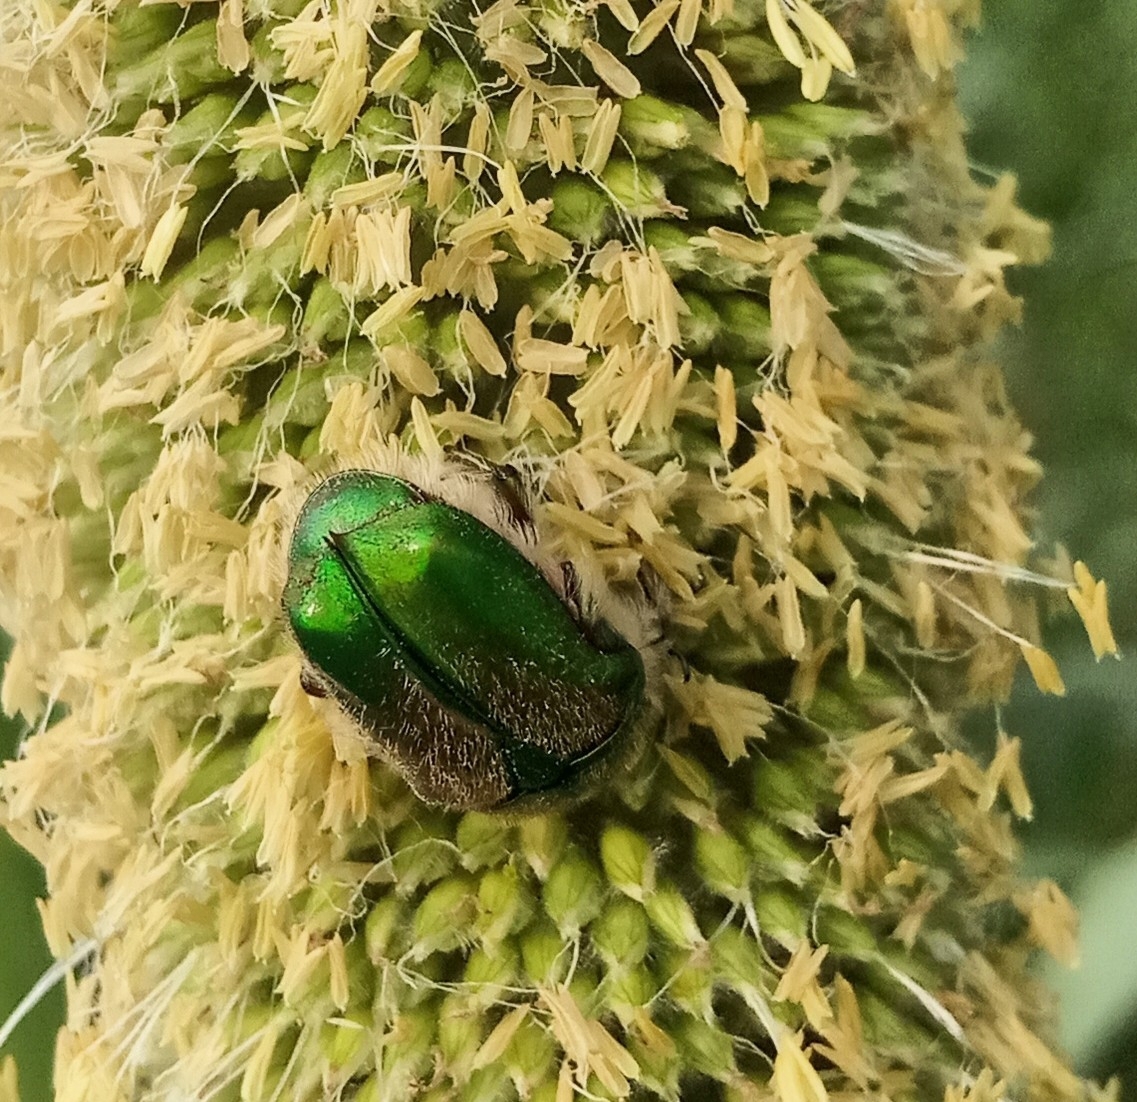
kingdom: Animalia
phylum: Arthropoda
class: Insecta
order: Coleoptera
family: Scarabaeidae
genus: Chiloloba
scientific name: Chiloloba acuta
